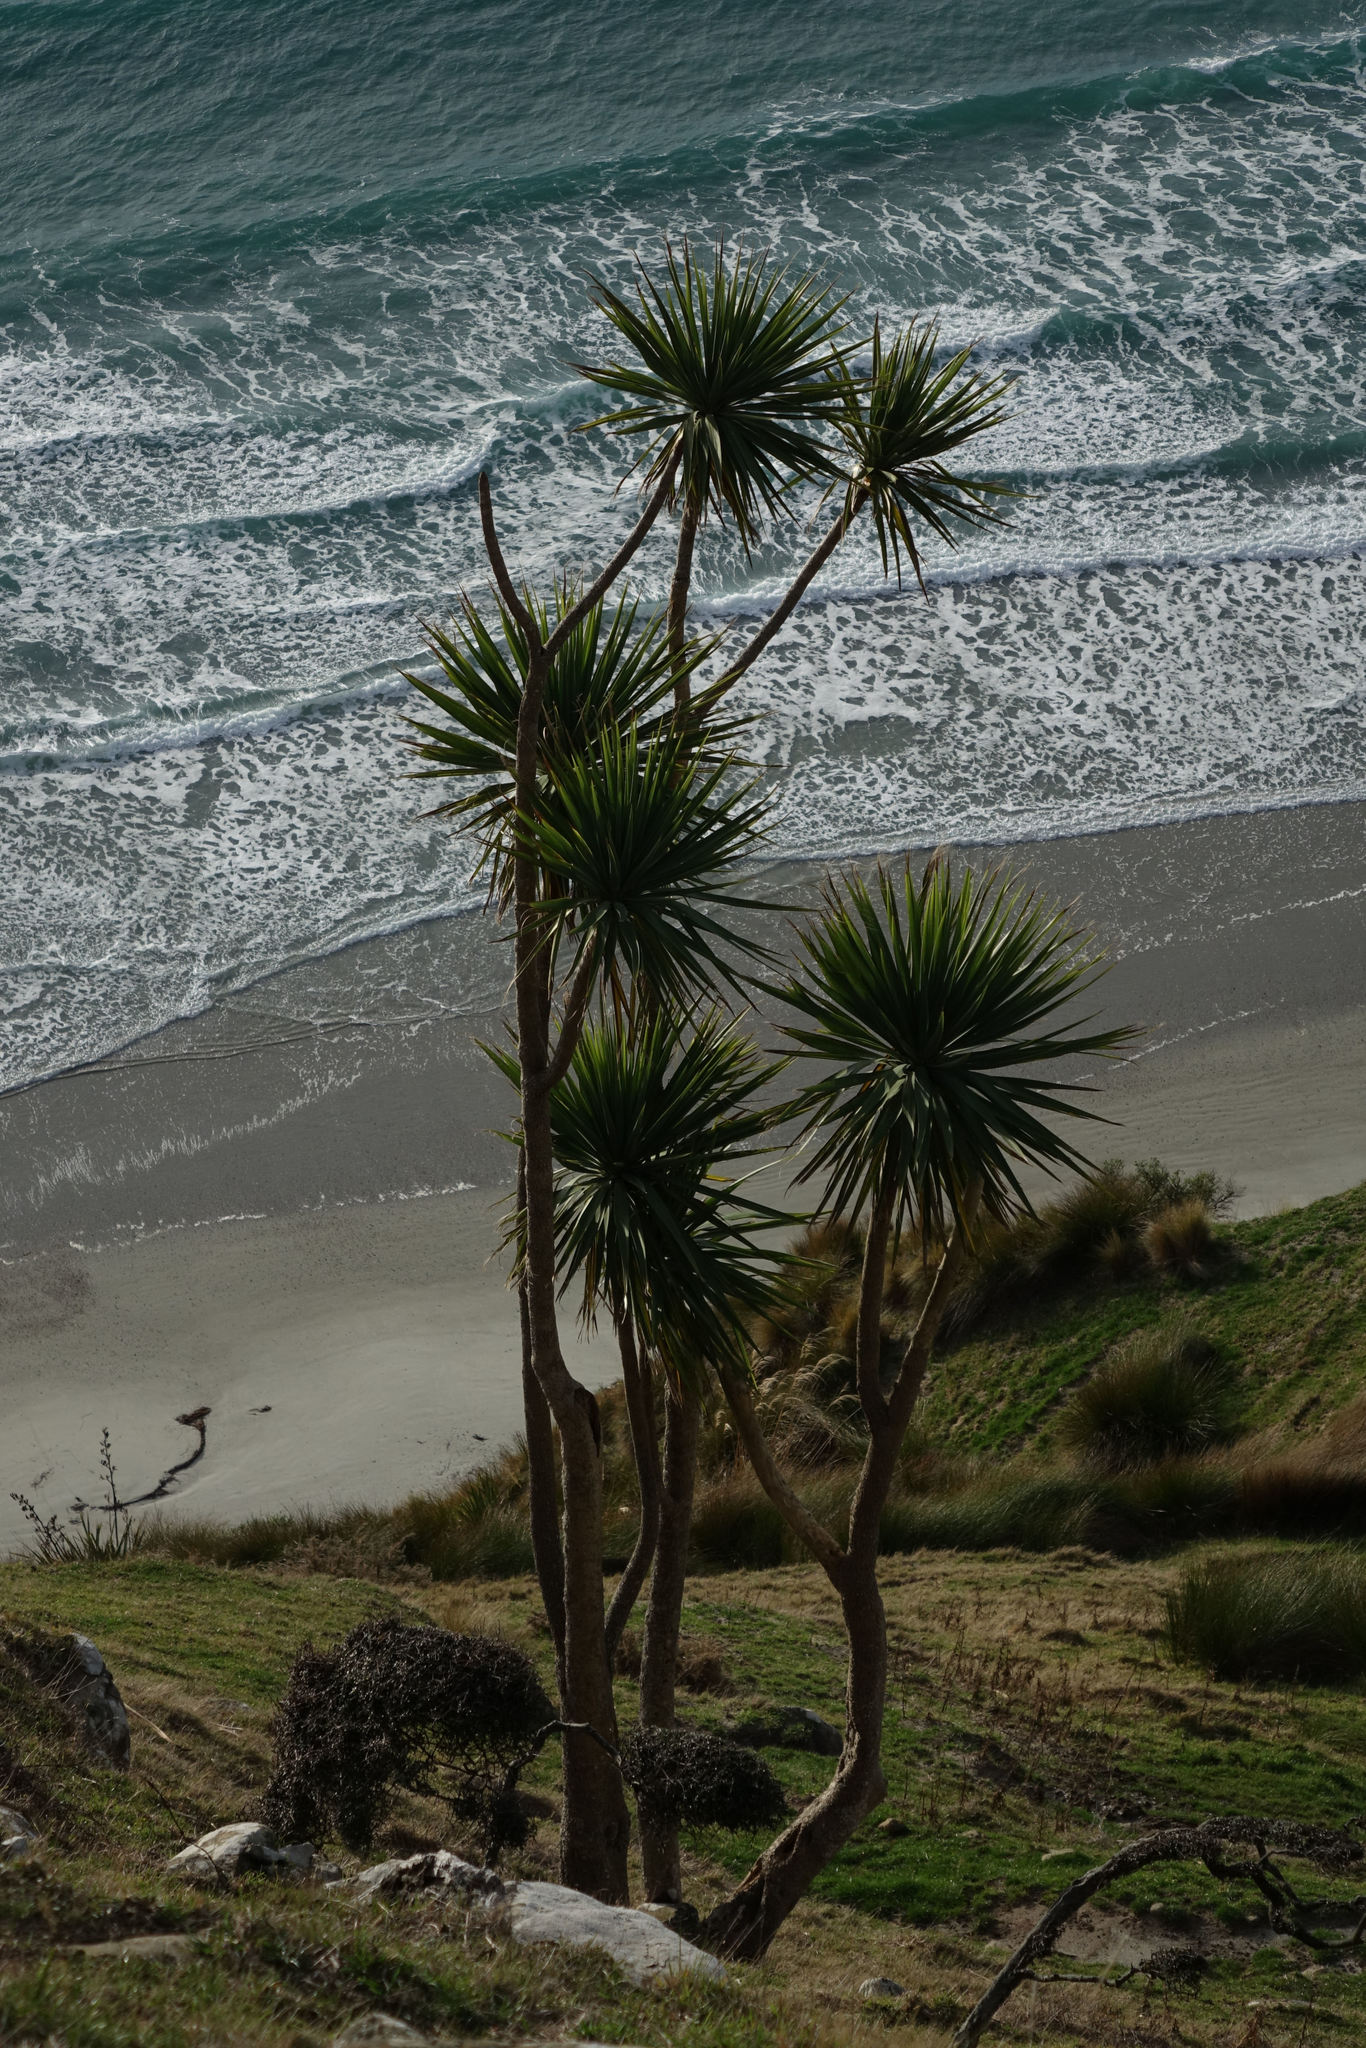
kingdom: Plantae
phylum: Tracheophyta
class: Liliopsida
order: Asparagales
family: Asparagaceae
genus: Cordyline
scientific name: Cordyline australis
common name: Cabbage-palm
